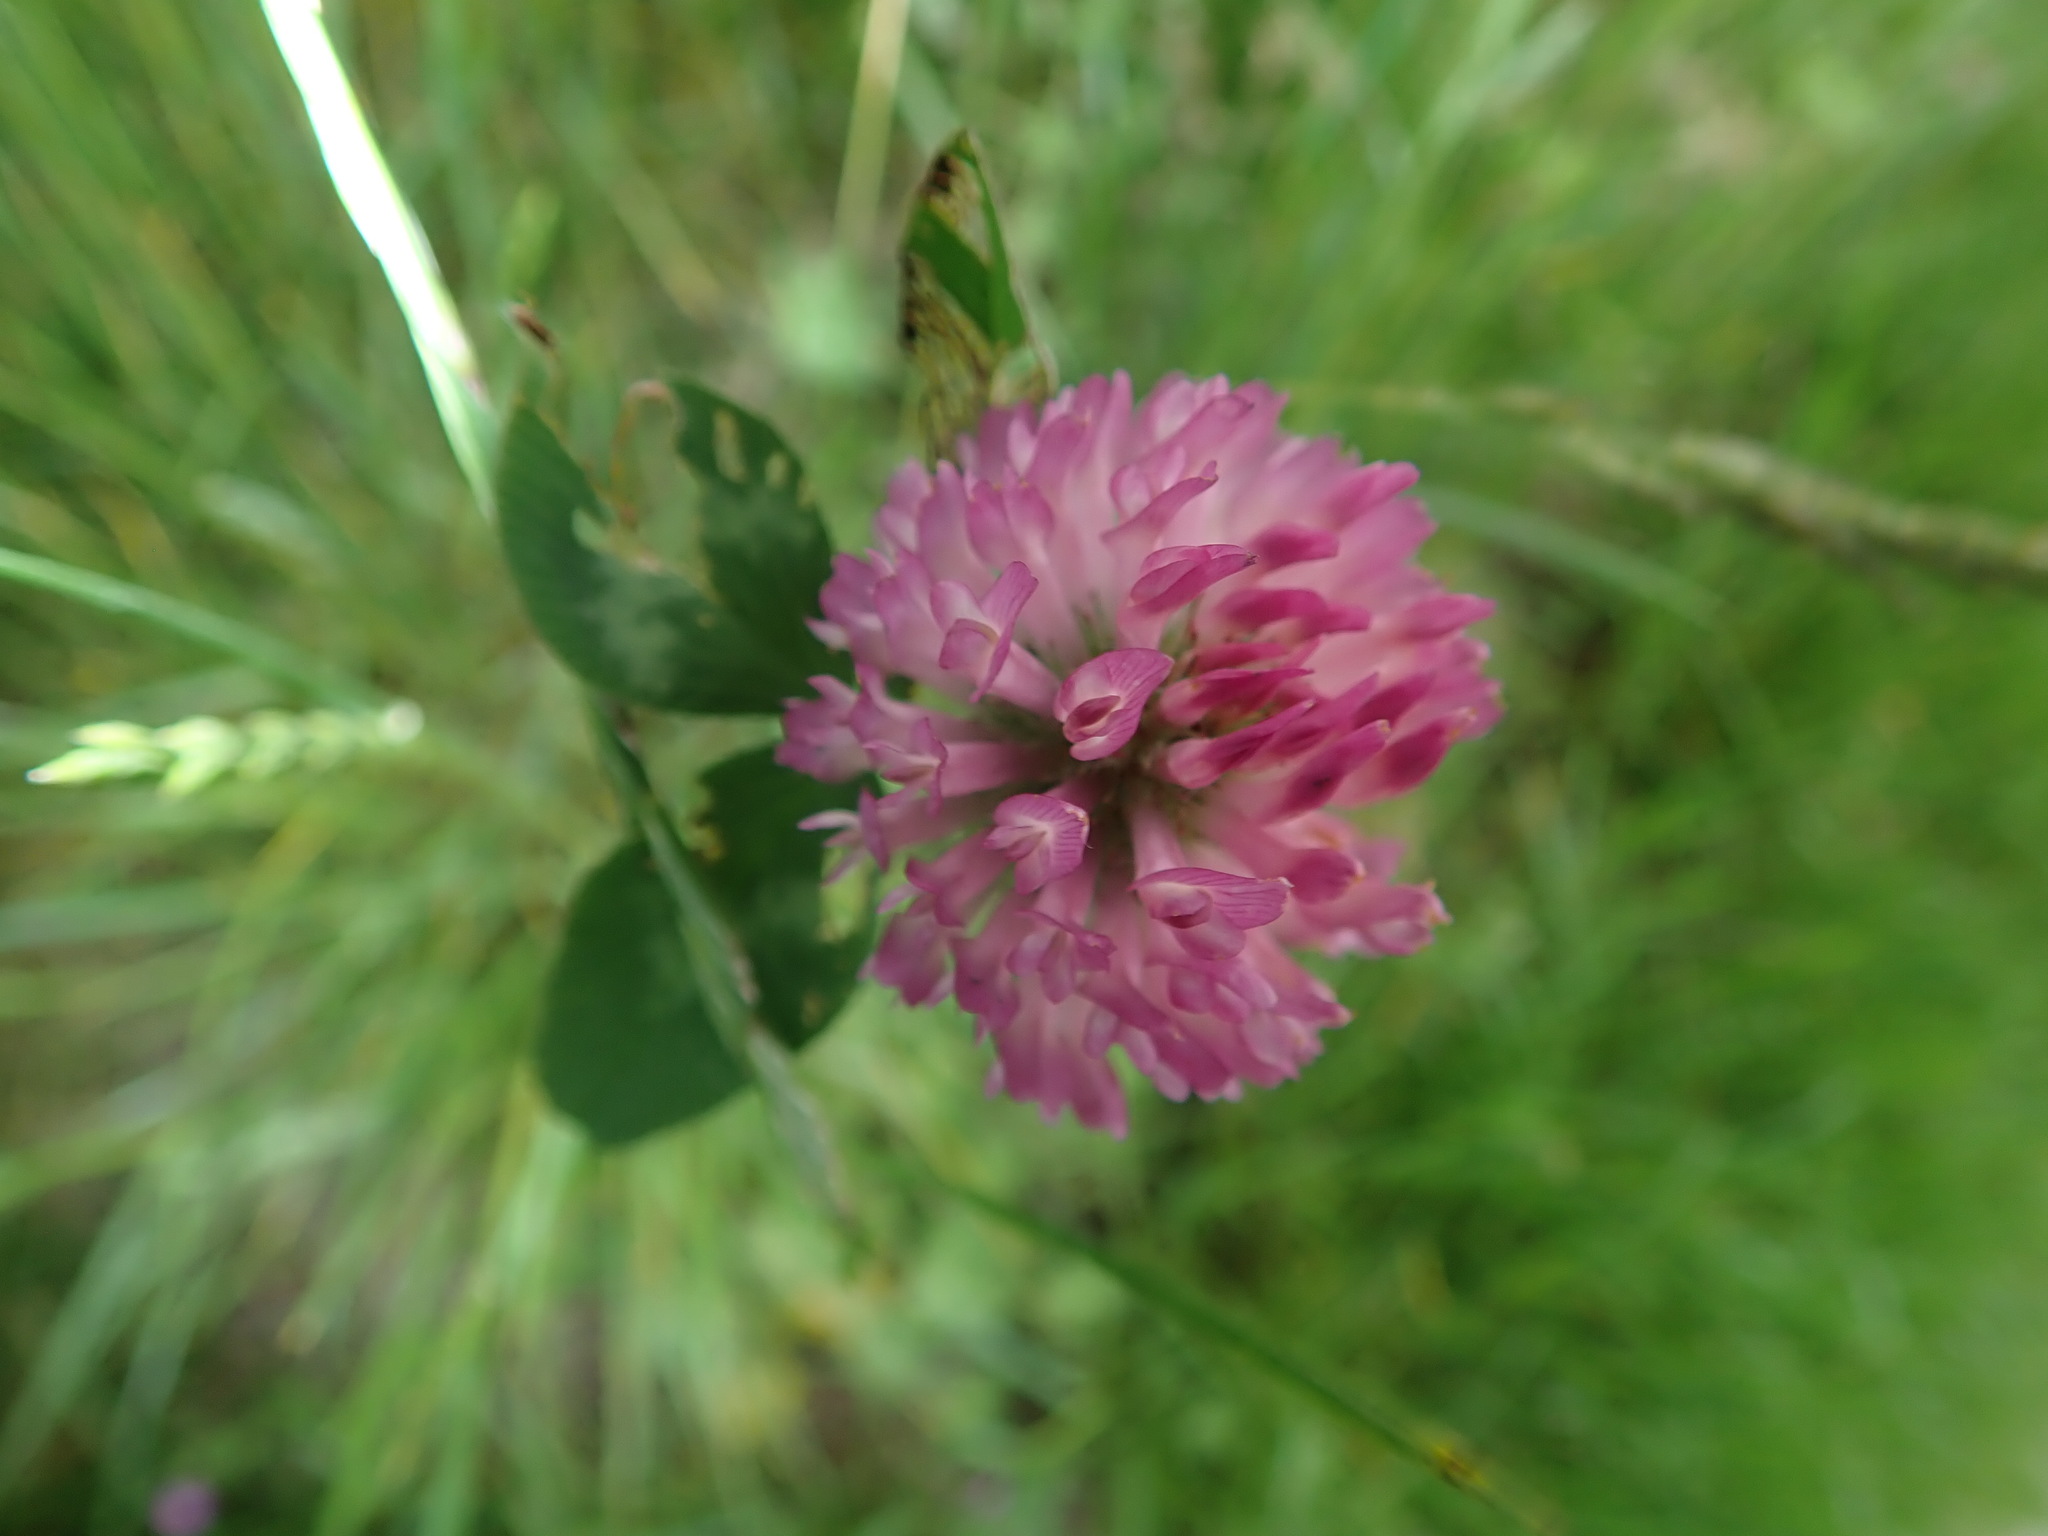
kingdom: Plantae
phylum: Tracheophyta
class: Magnoliopsida
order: Fabales
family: Fabaceae
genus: Trifolium
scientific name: Trifolium pratense
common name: Red clover
